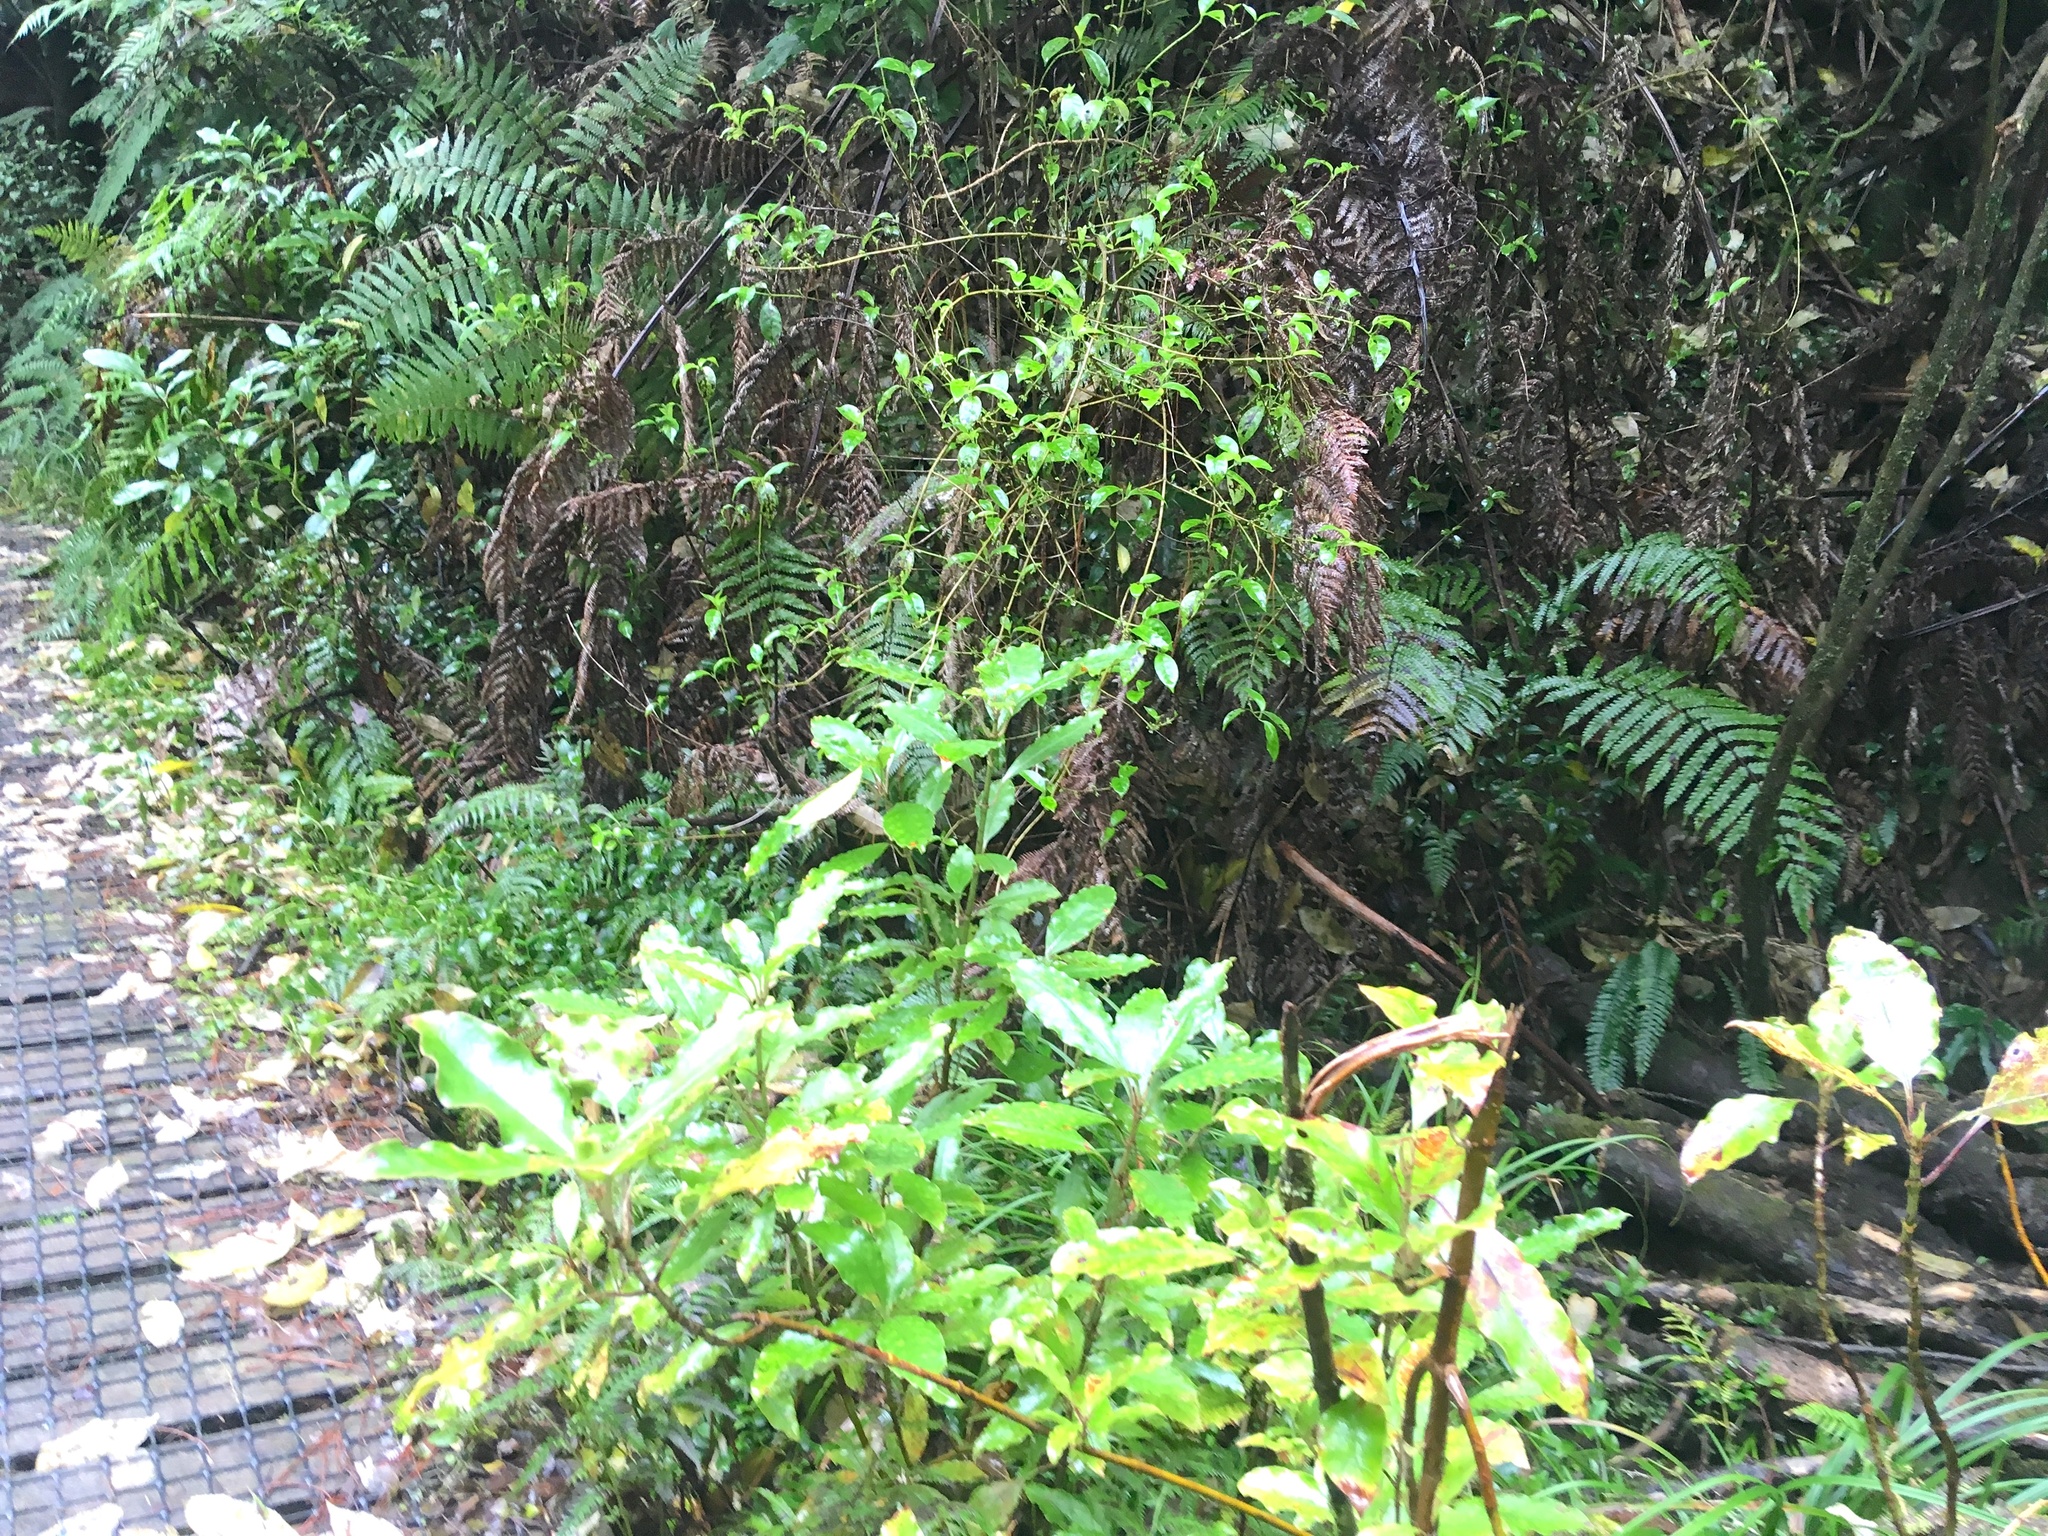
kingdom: Plantae
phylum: Tracheophyta
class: Polypodiopsida
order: Polypodiales
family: Thelypteridaceae
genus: Pakau
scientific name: Pakau pennigera
